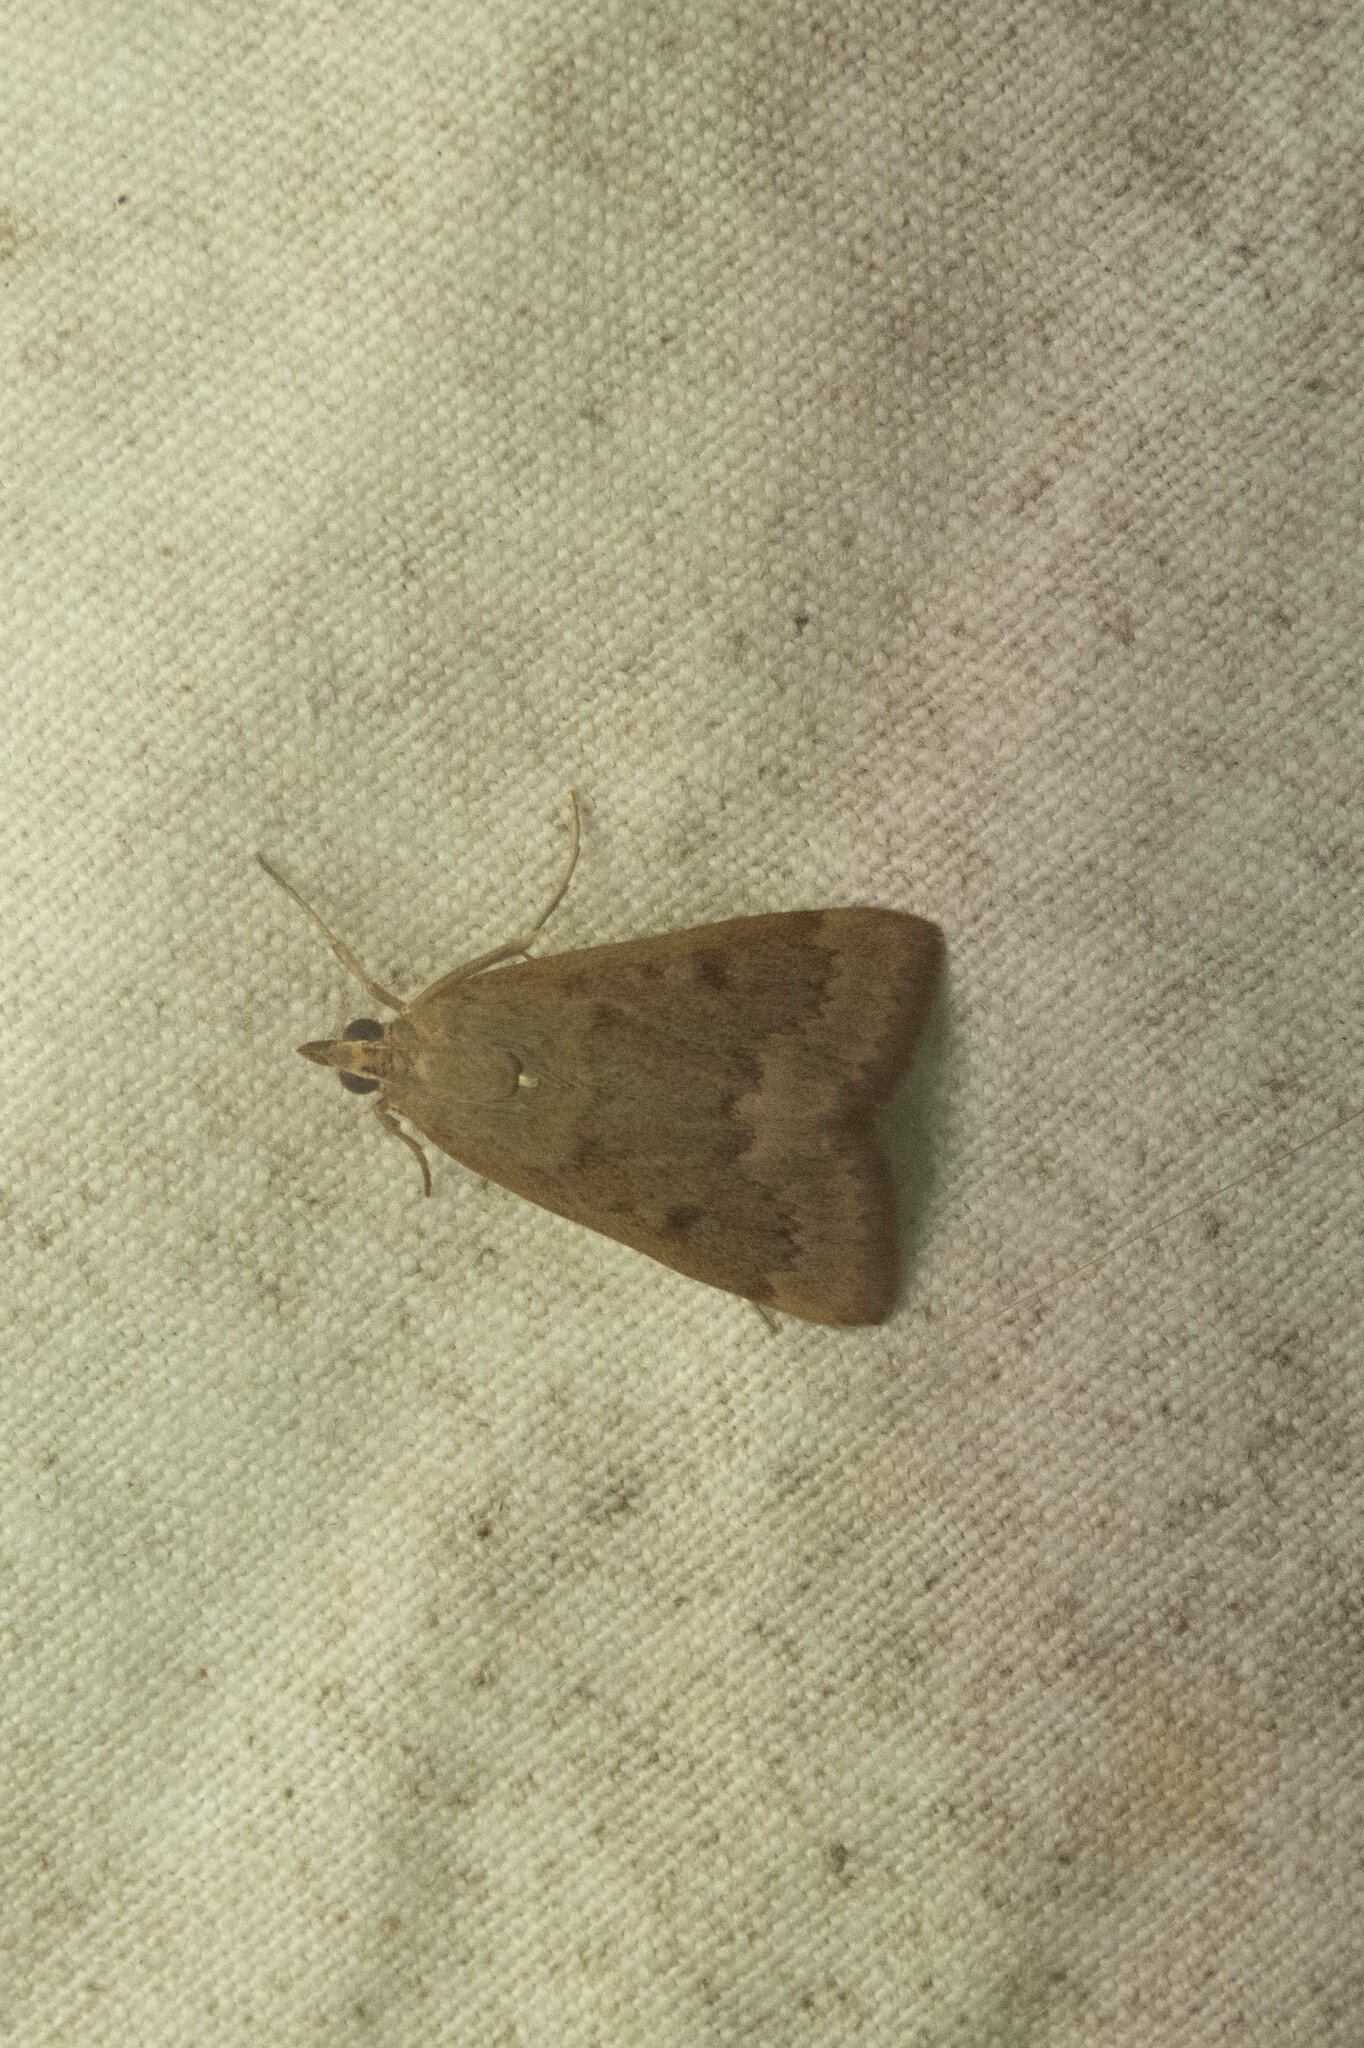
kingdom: Animalia
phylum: Arthropoda
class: Insecta
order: Lepidoptera
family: Crambidae
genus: Achyra
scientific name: Achyra rantalis
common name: Garden webworm
